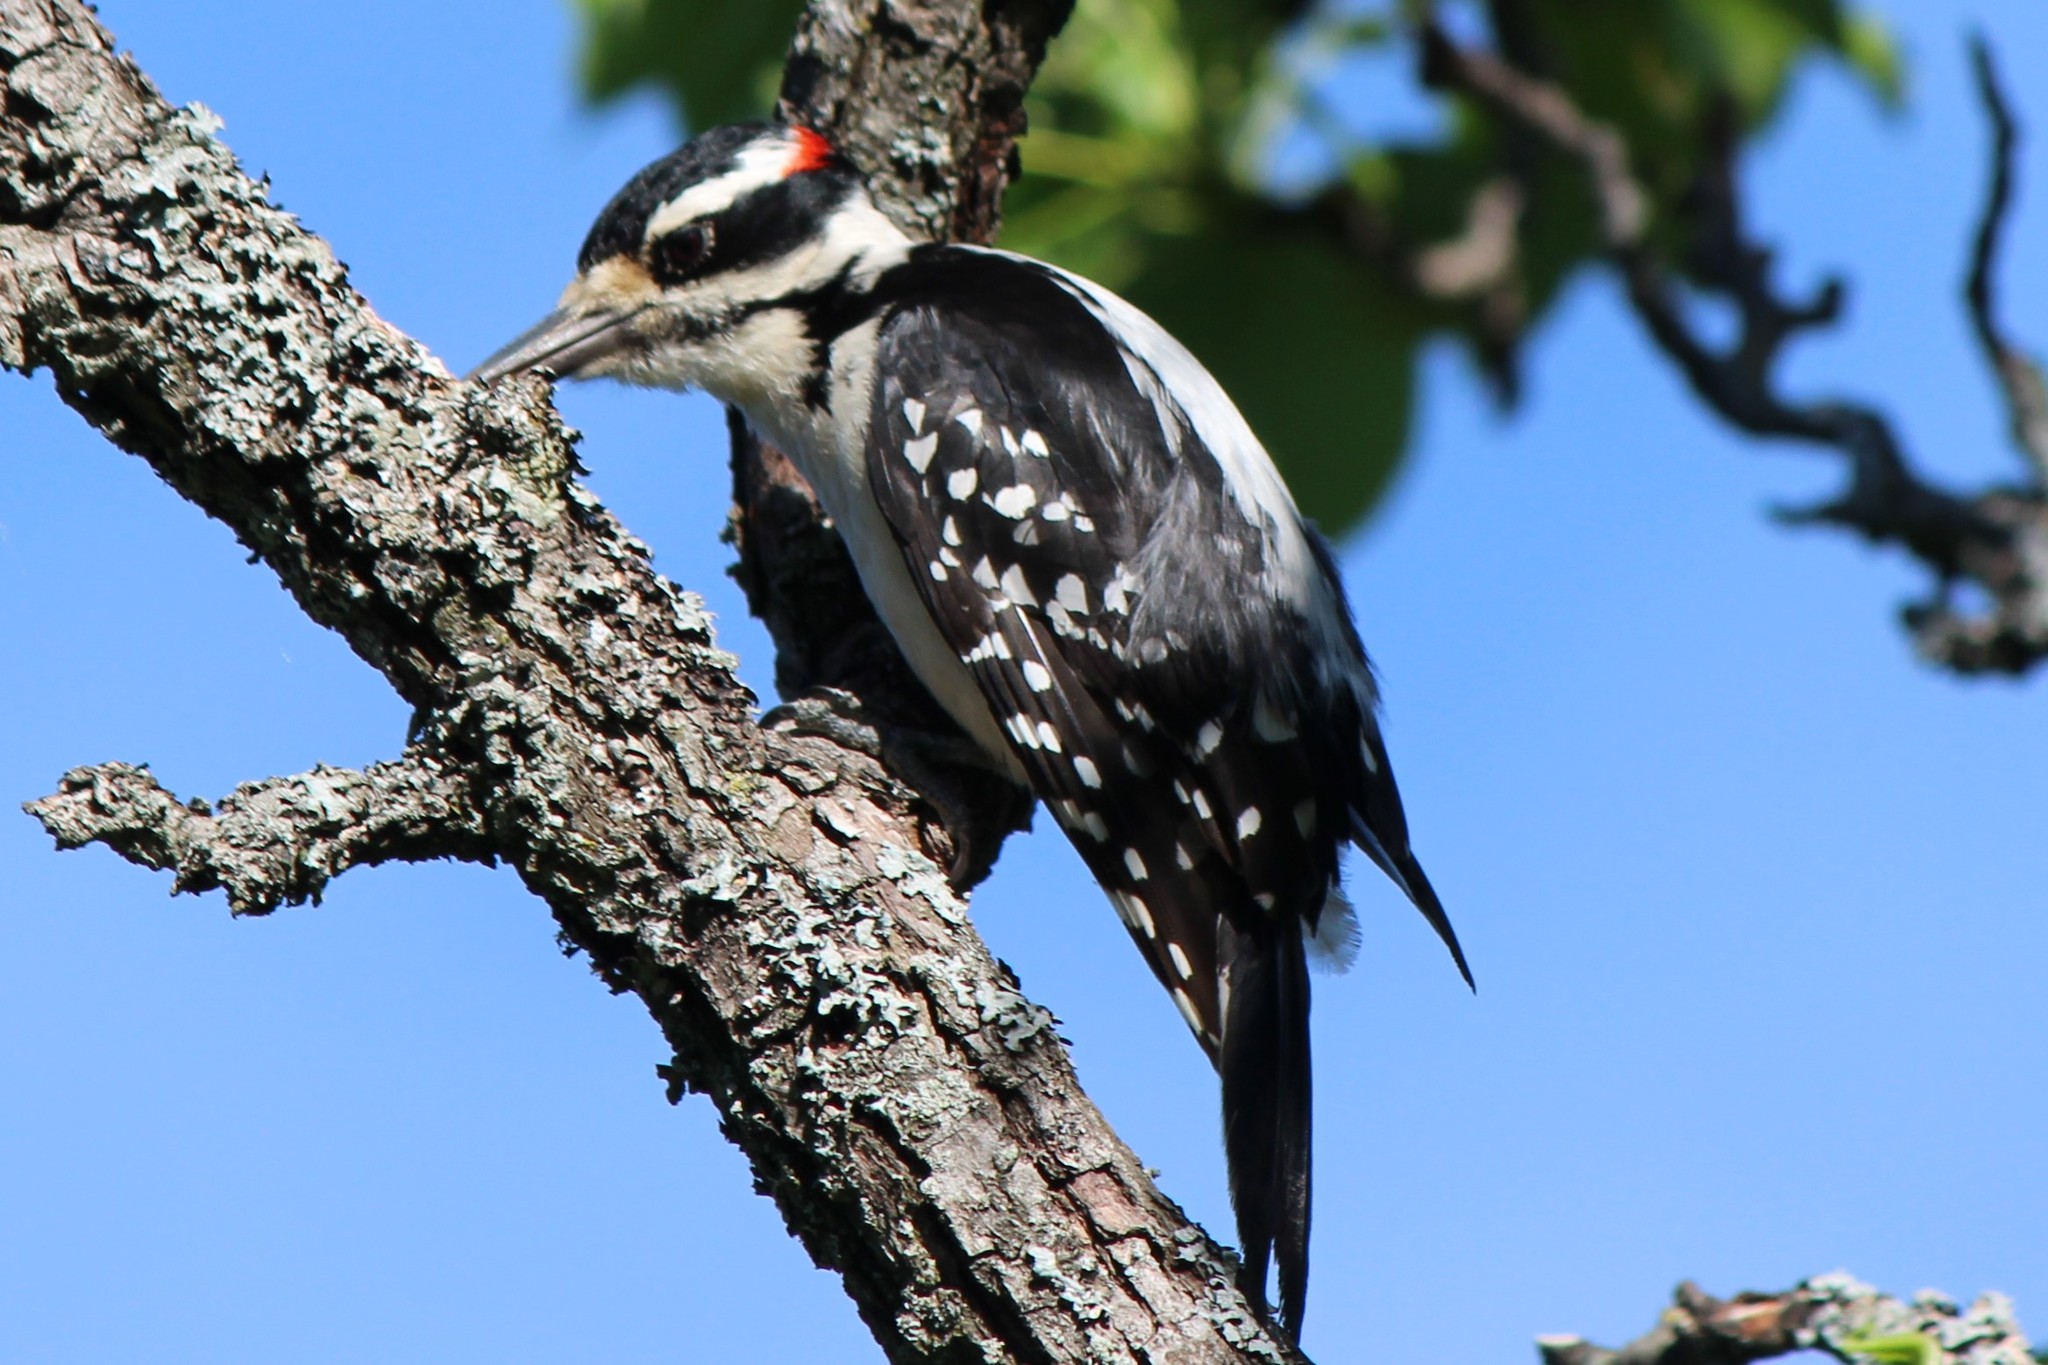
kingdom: Animalia
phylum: Chordata
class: Aves
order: Piciformes
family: Picidae
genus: Leuconotopicus
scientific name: Leuconotopicus villosus
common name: Hairy woodpecker
